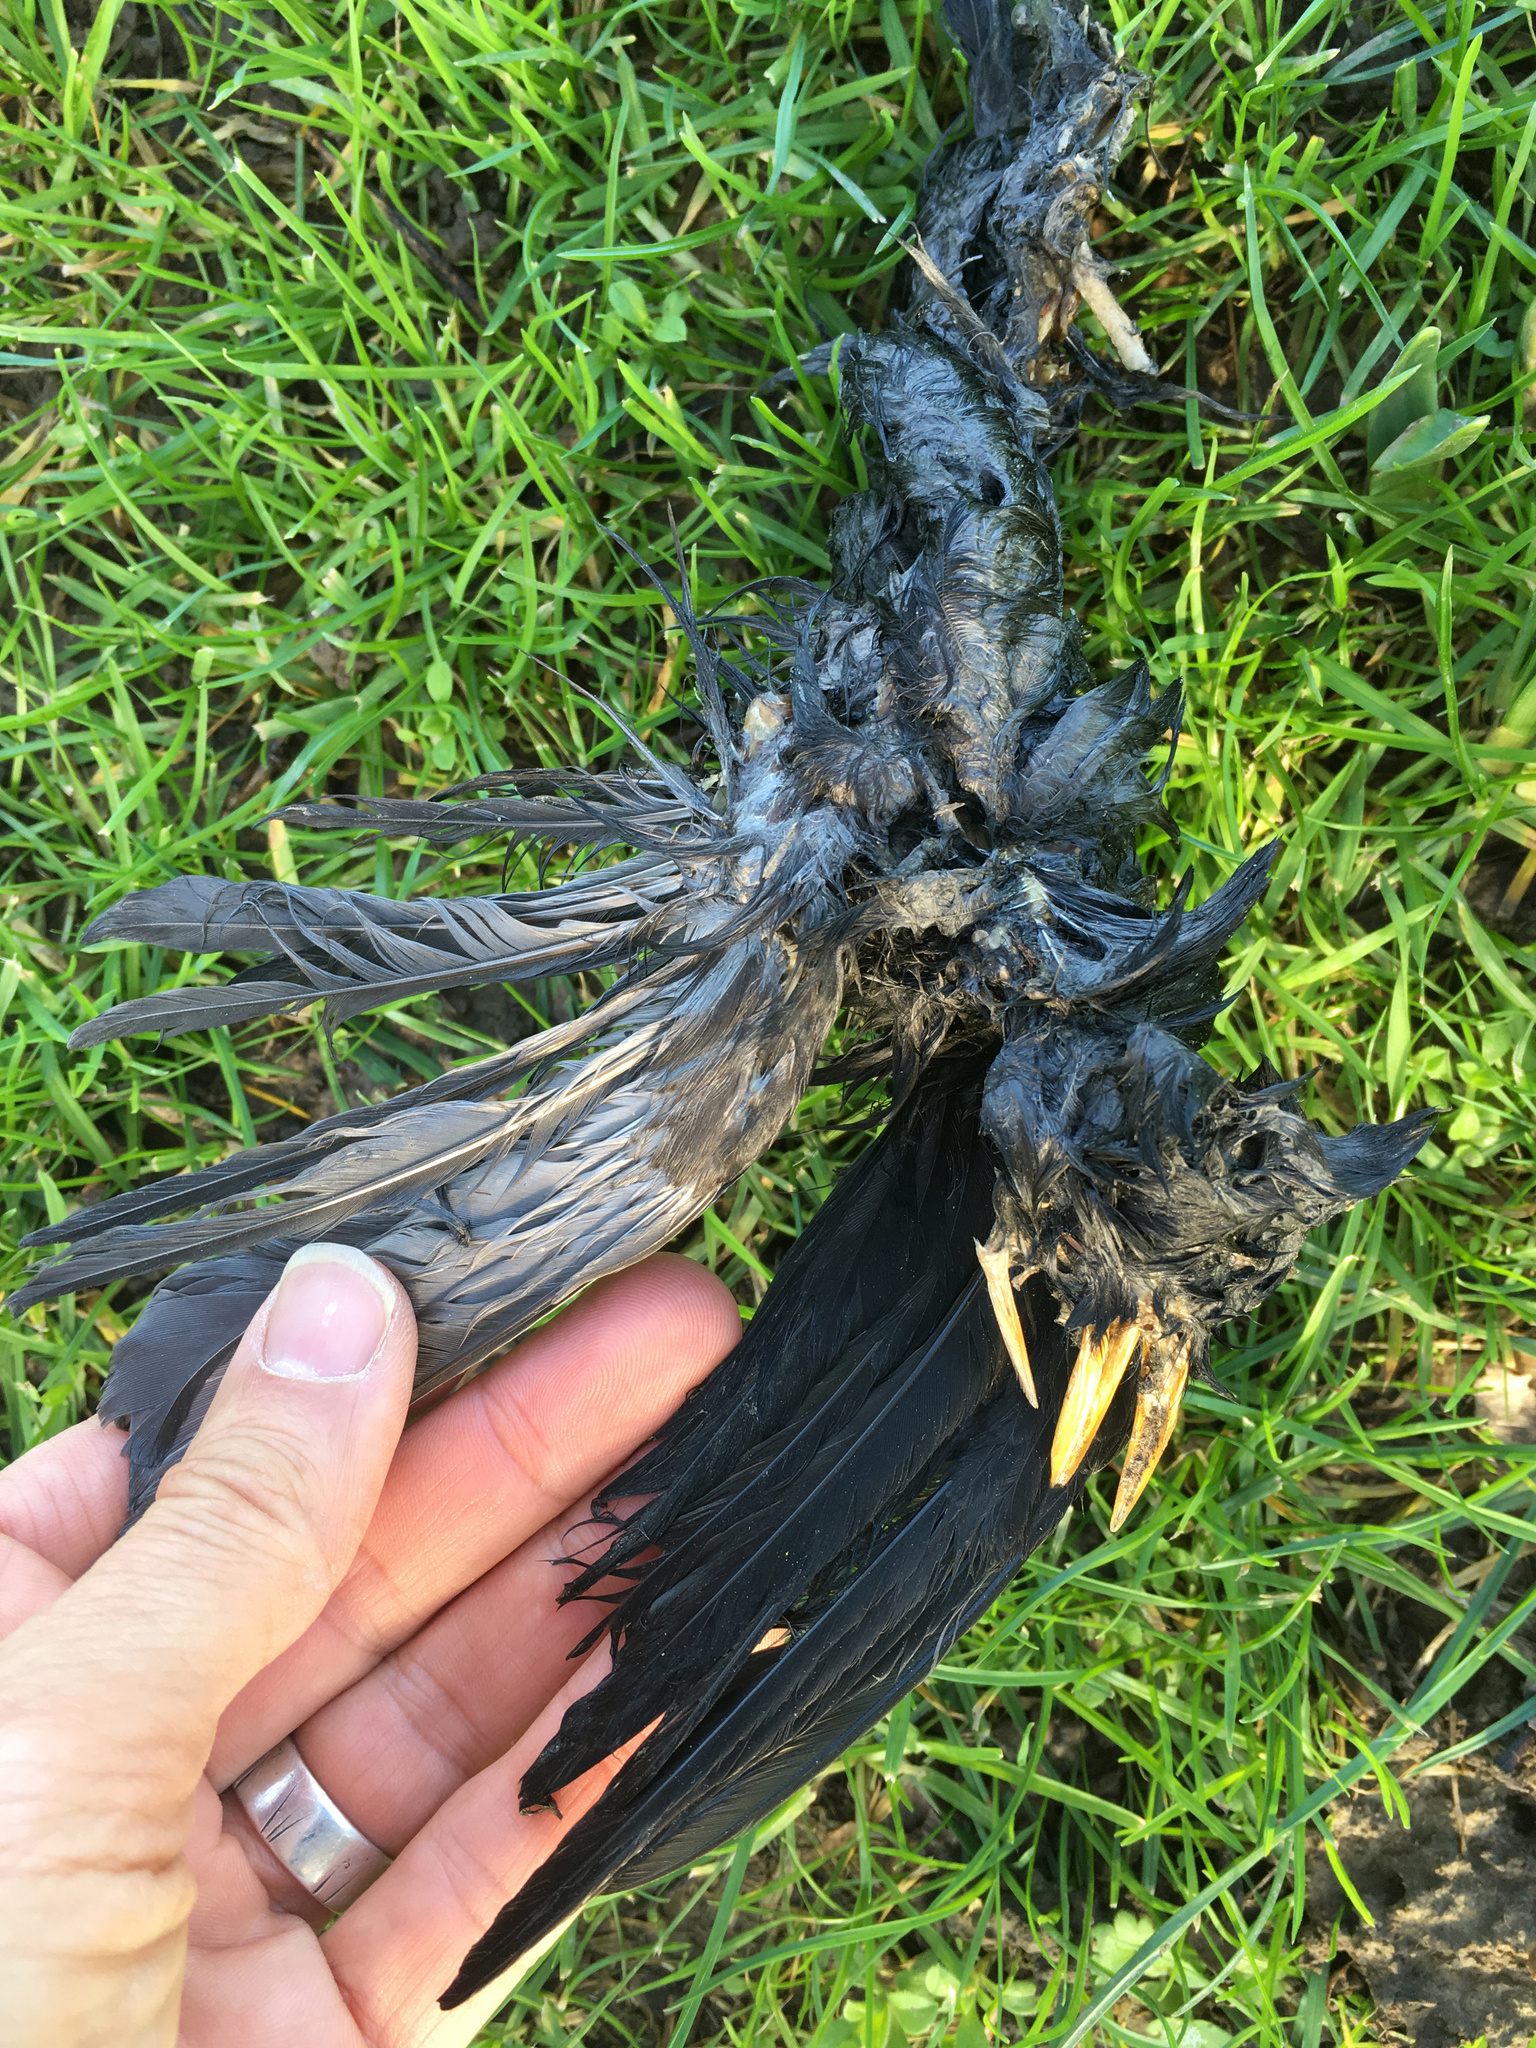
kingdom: Animalia
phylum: Chordata
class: Aves
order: Passeriformes
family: Turdidae
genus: Turdus
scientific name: Turdus merula
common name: Common blackbird
